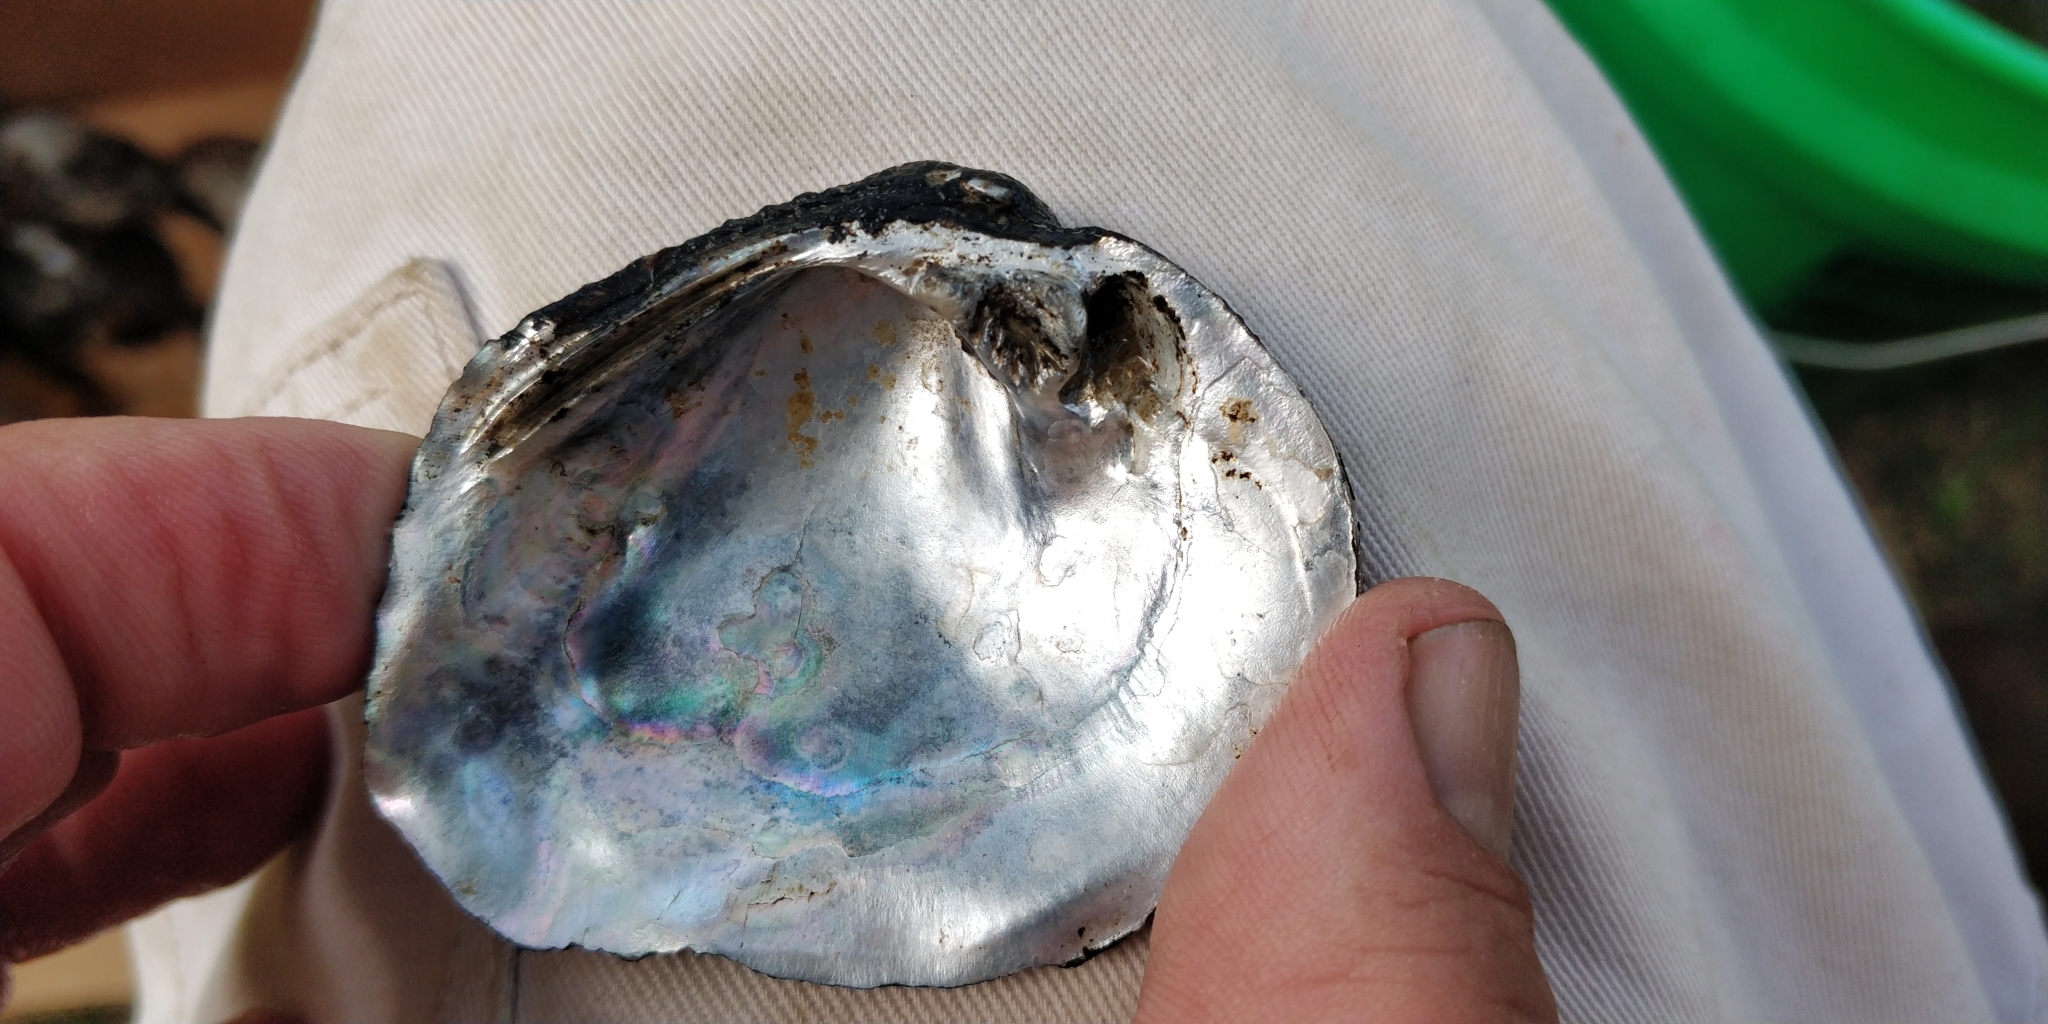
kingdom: Animalia
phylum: Mollusca
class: Bivalvia
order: Unionida
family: Unionidae
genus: Tritogonia
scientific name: Tritogonia nobilis
